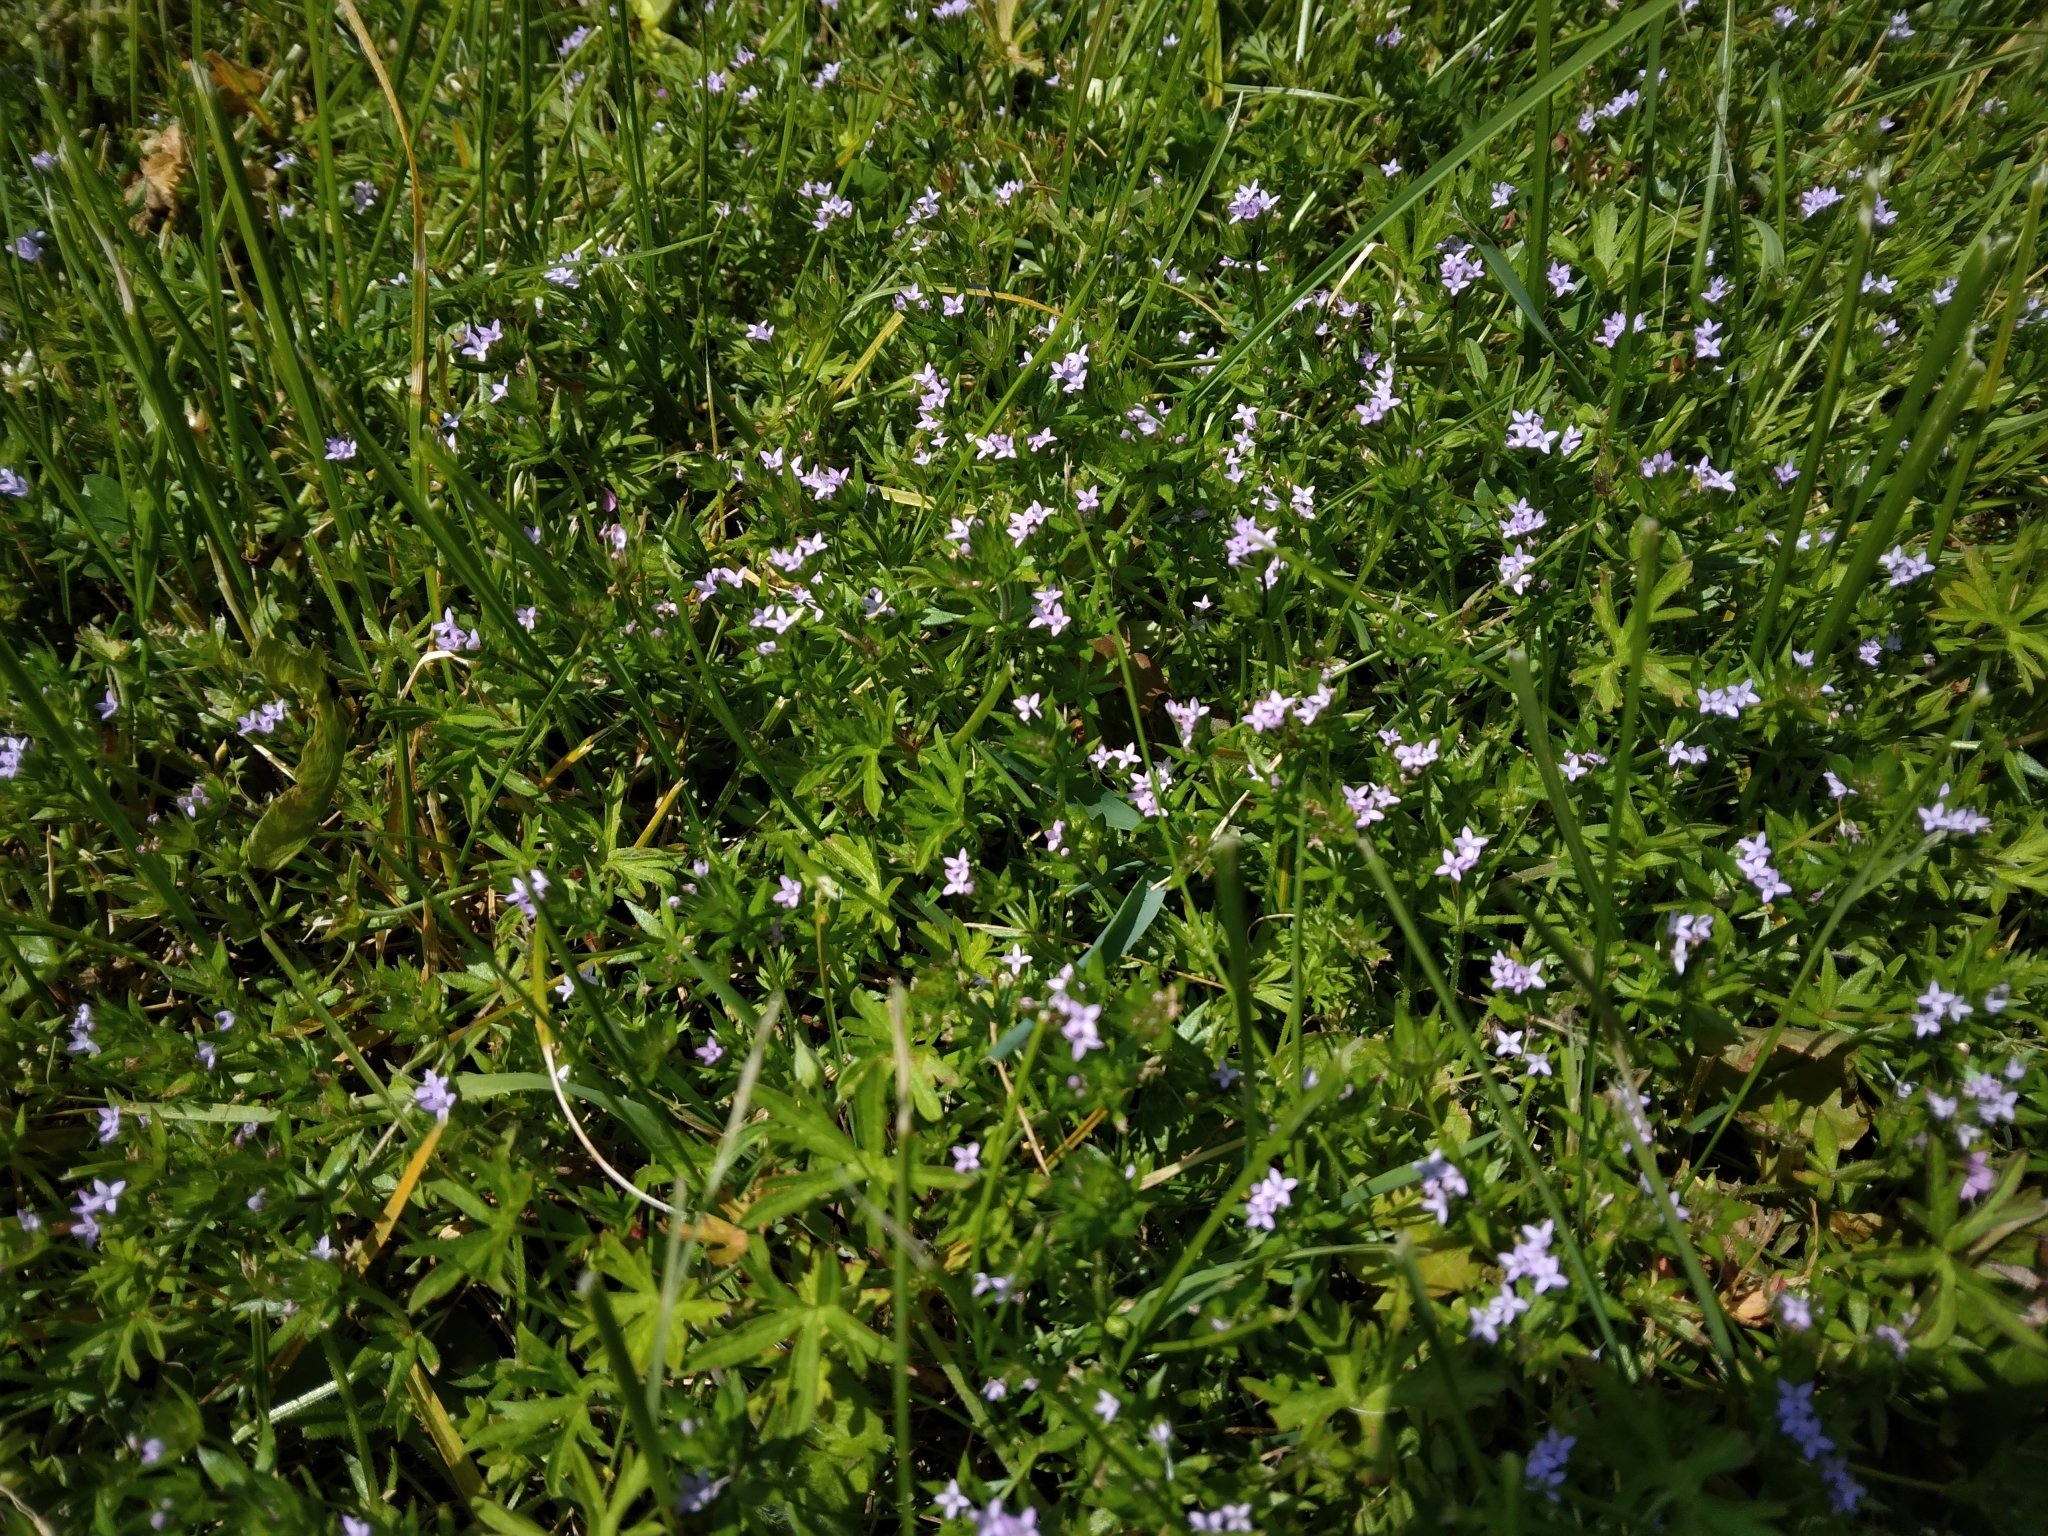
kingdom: Plantae
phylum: Tracheophyta
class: Magnoliopsida
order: Gentianales
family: Rubiaceae
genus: Sherardia
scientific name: Sherardia arvensis
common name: Field madder
